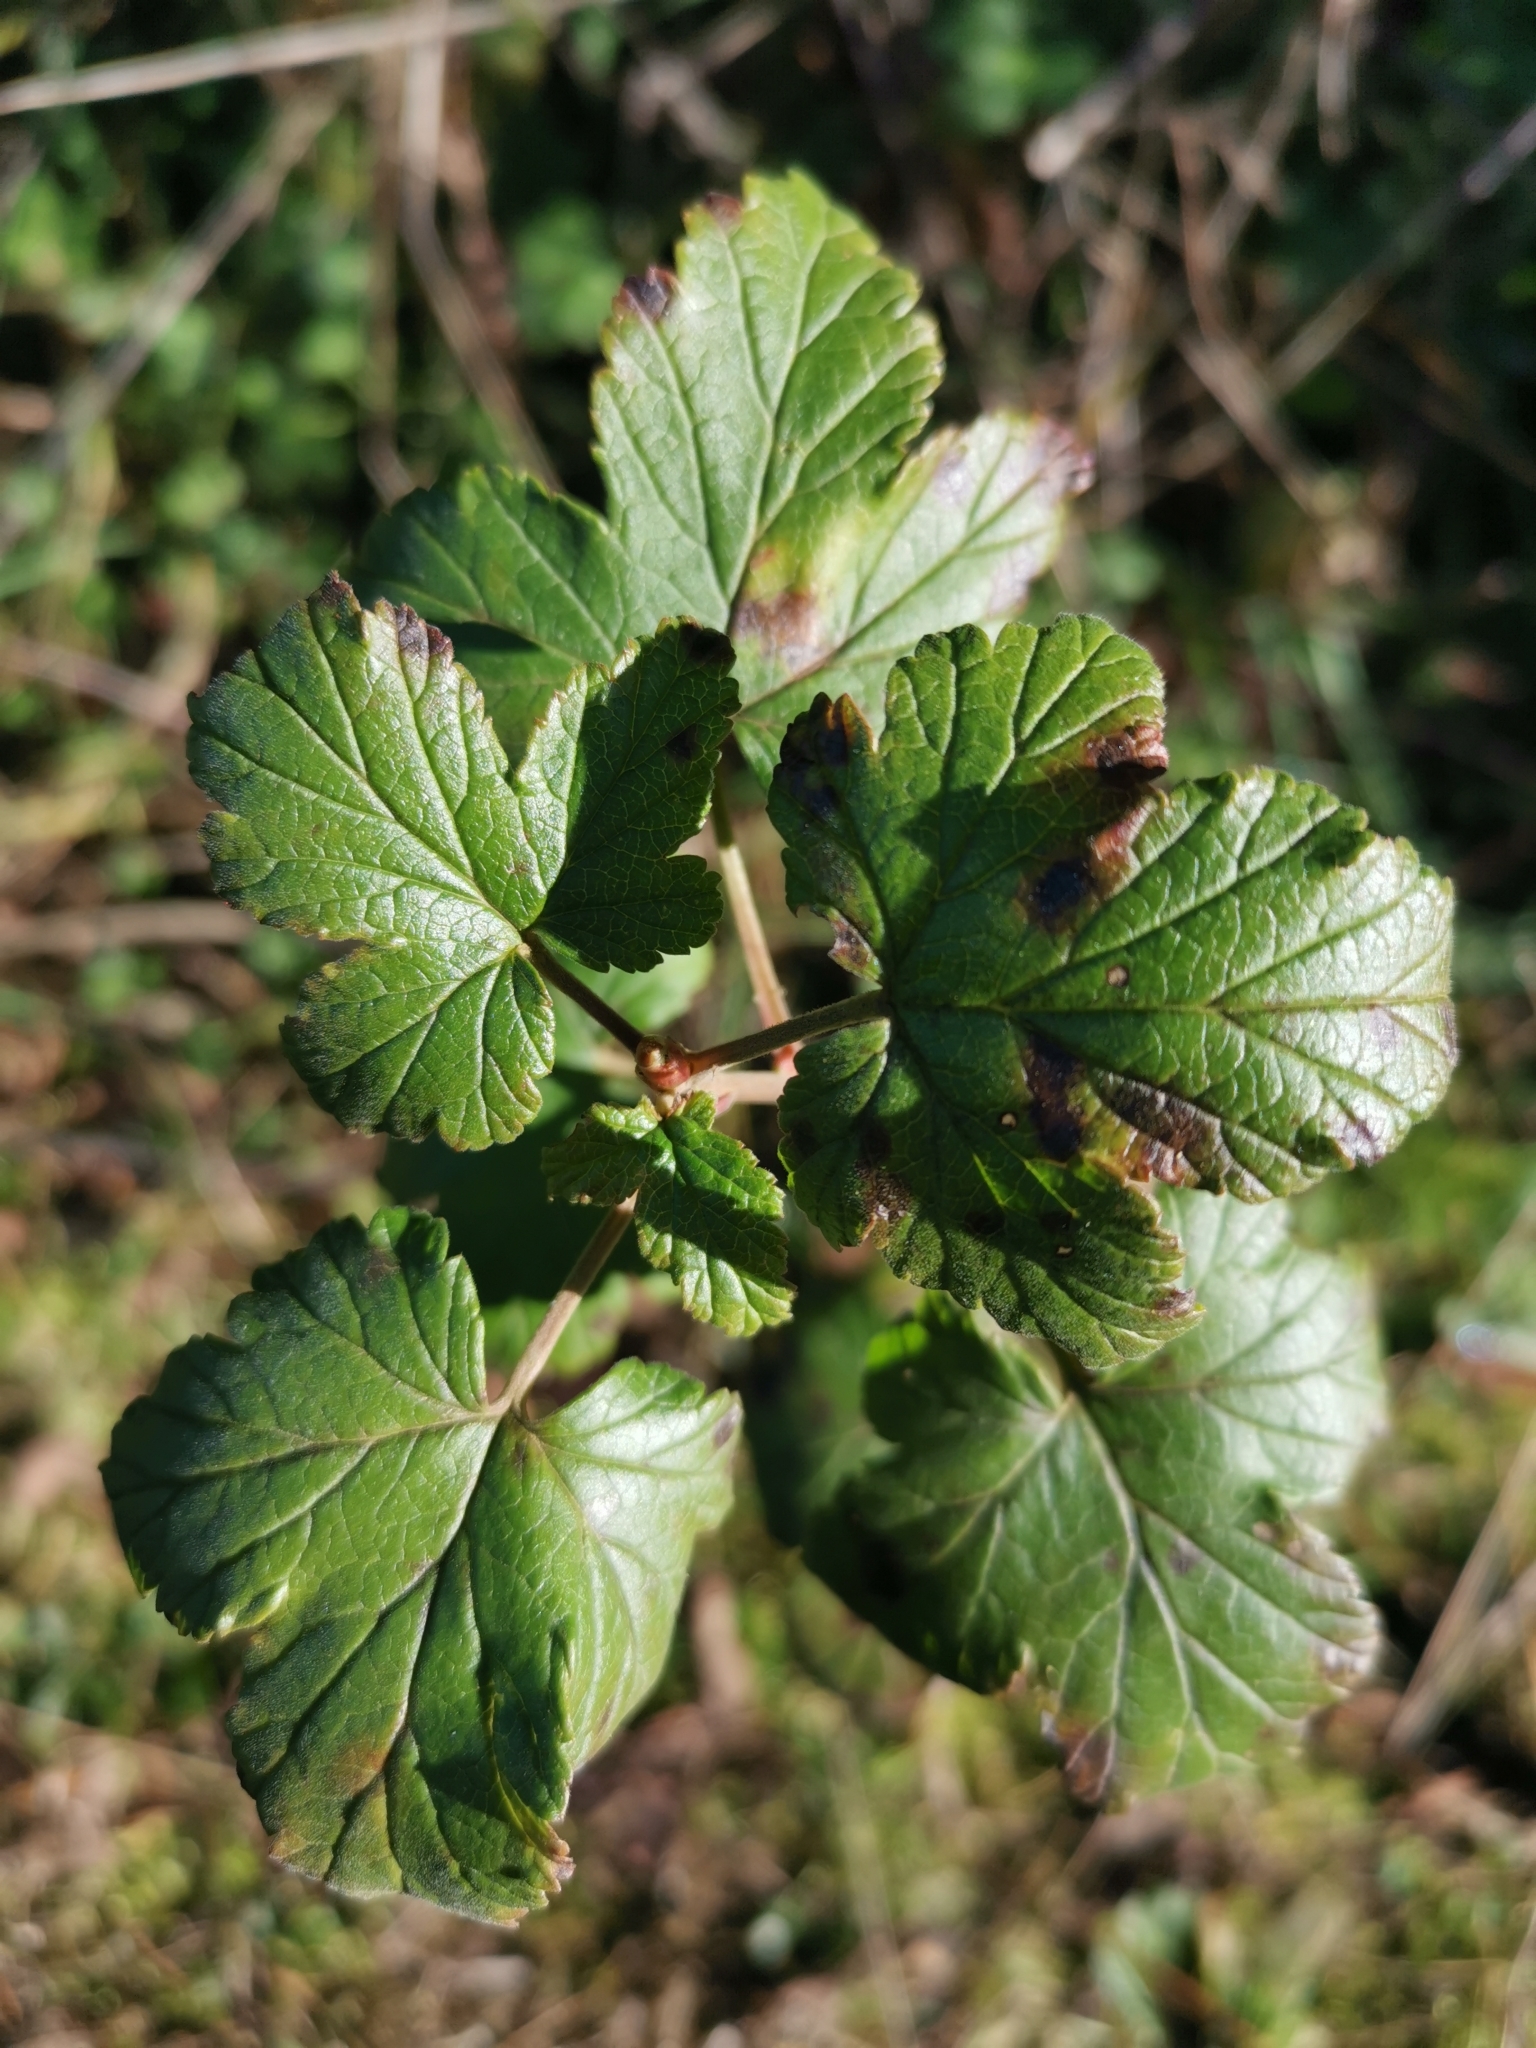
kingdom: Plantae
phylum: Tracheophyta
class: Magnoliopsida
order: Saxifragales
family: Grossulariaceae
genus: Ribes
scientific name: Ribes magellanicum
